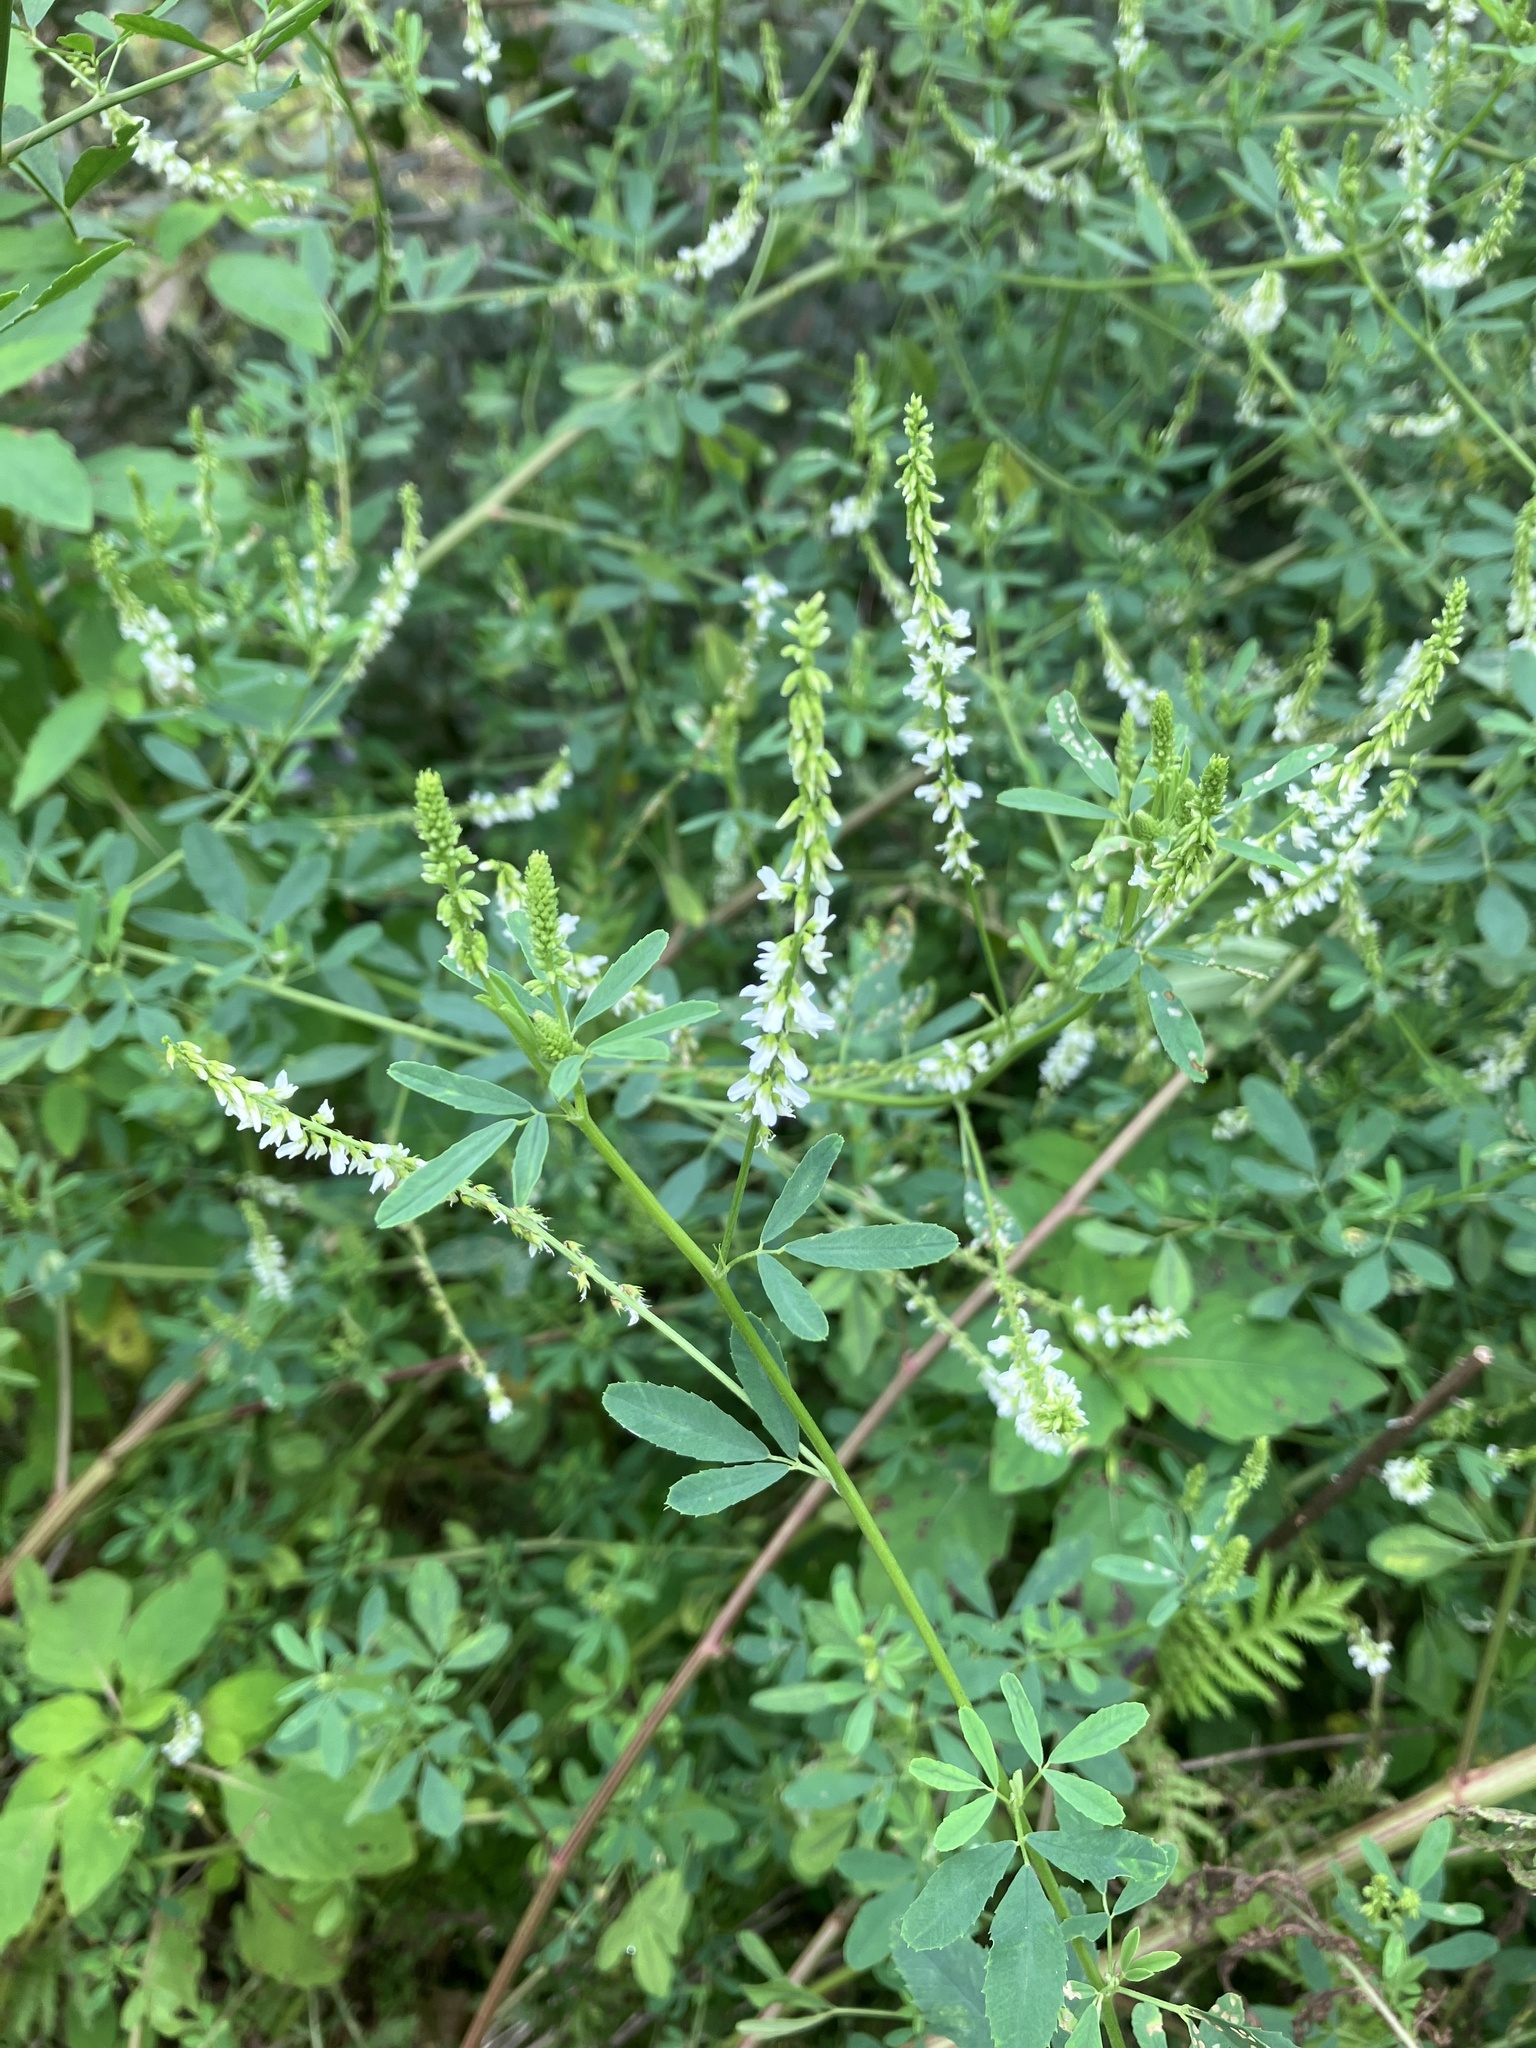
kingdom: Plantae
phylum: Tracheophyta
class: Magnoliopsida
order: Fabales
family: Fabaceae
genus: Melilotus
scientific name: Melilotus albus
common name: White melilot
